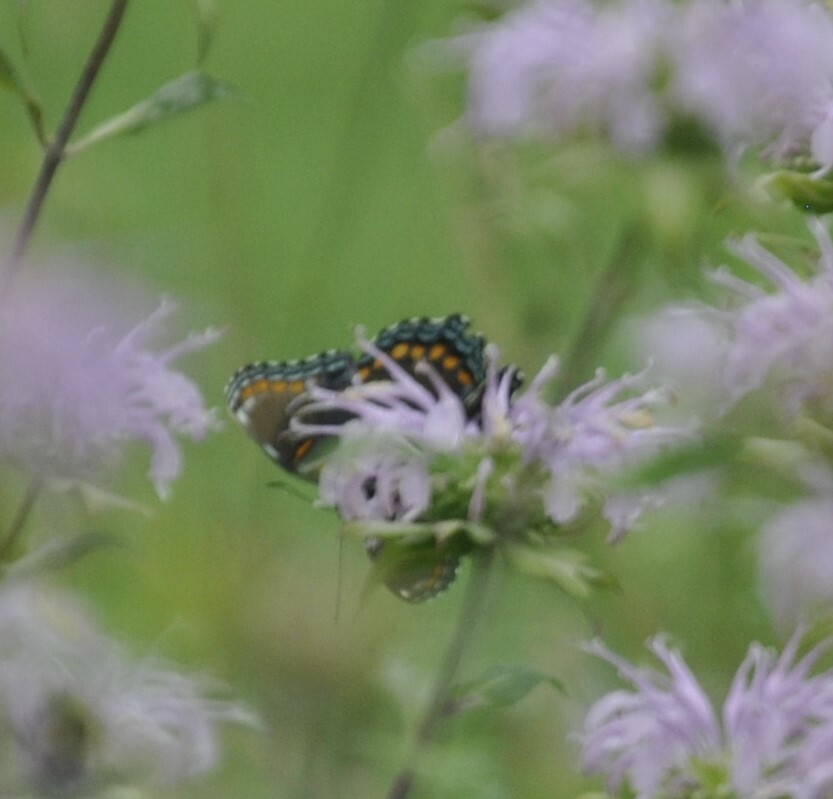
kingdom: Animalia
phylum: Arthropoda
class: Insecta
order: Lepidoptera
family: Nymphalidae
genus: Limenitis
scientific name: Limenitis arthemis
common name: Red-spotted admiral
